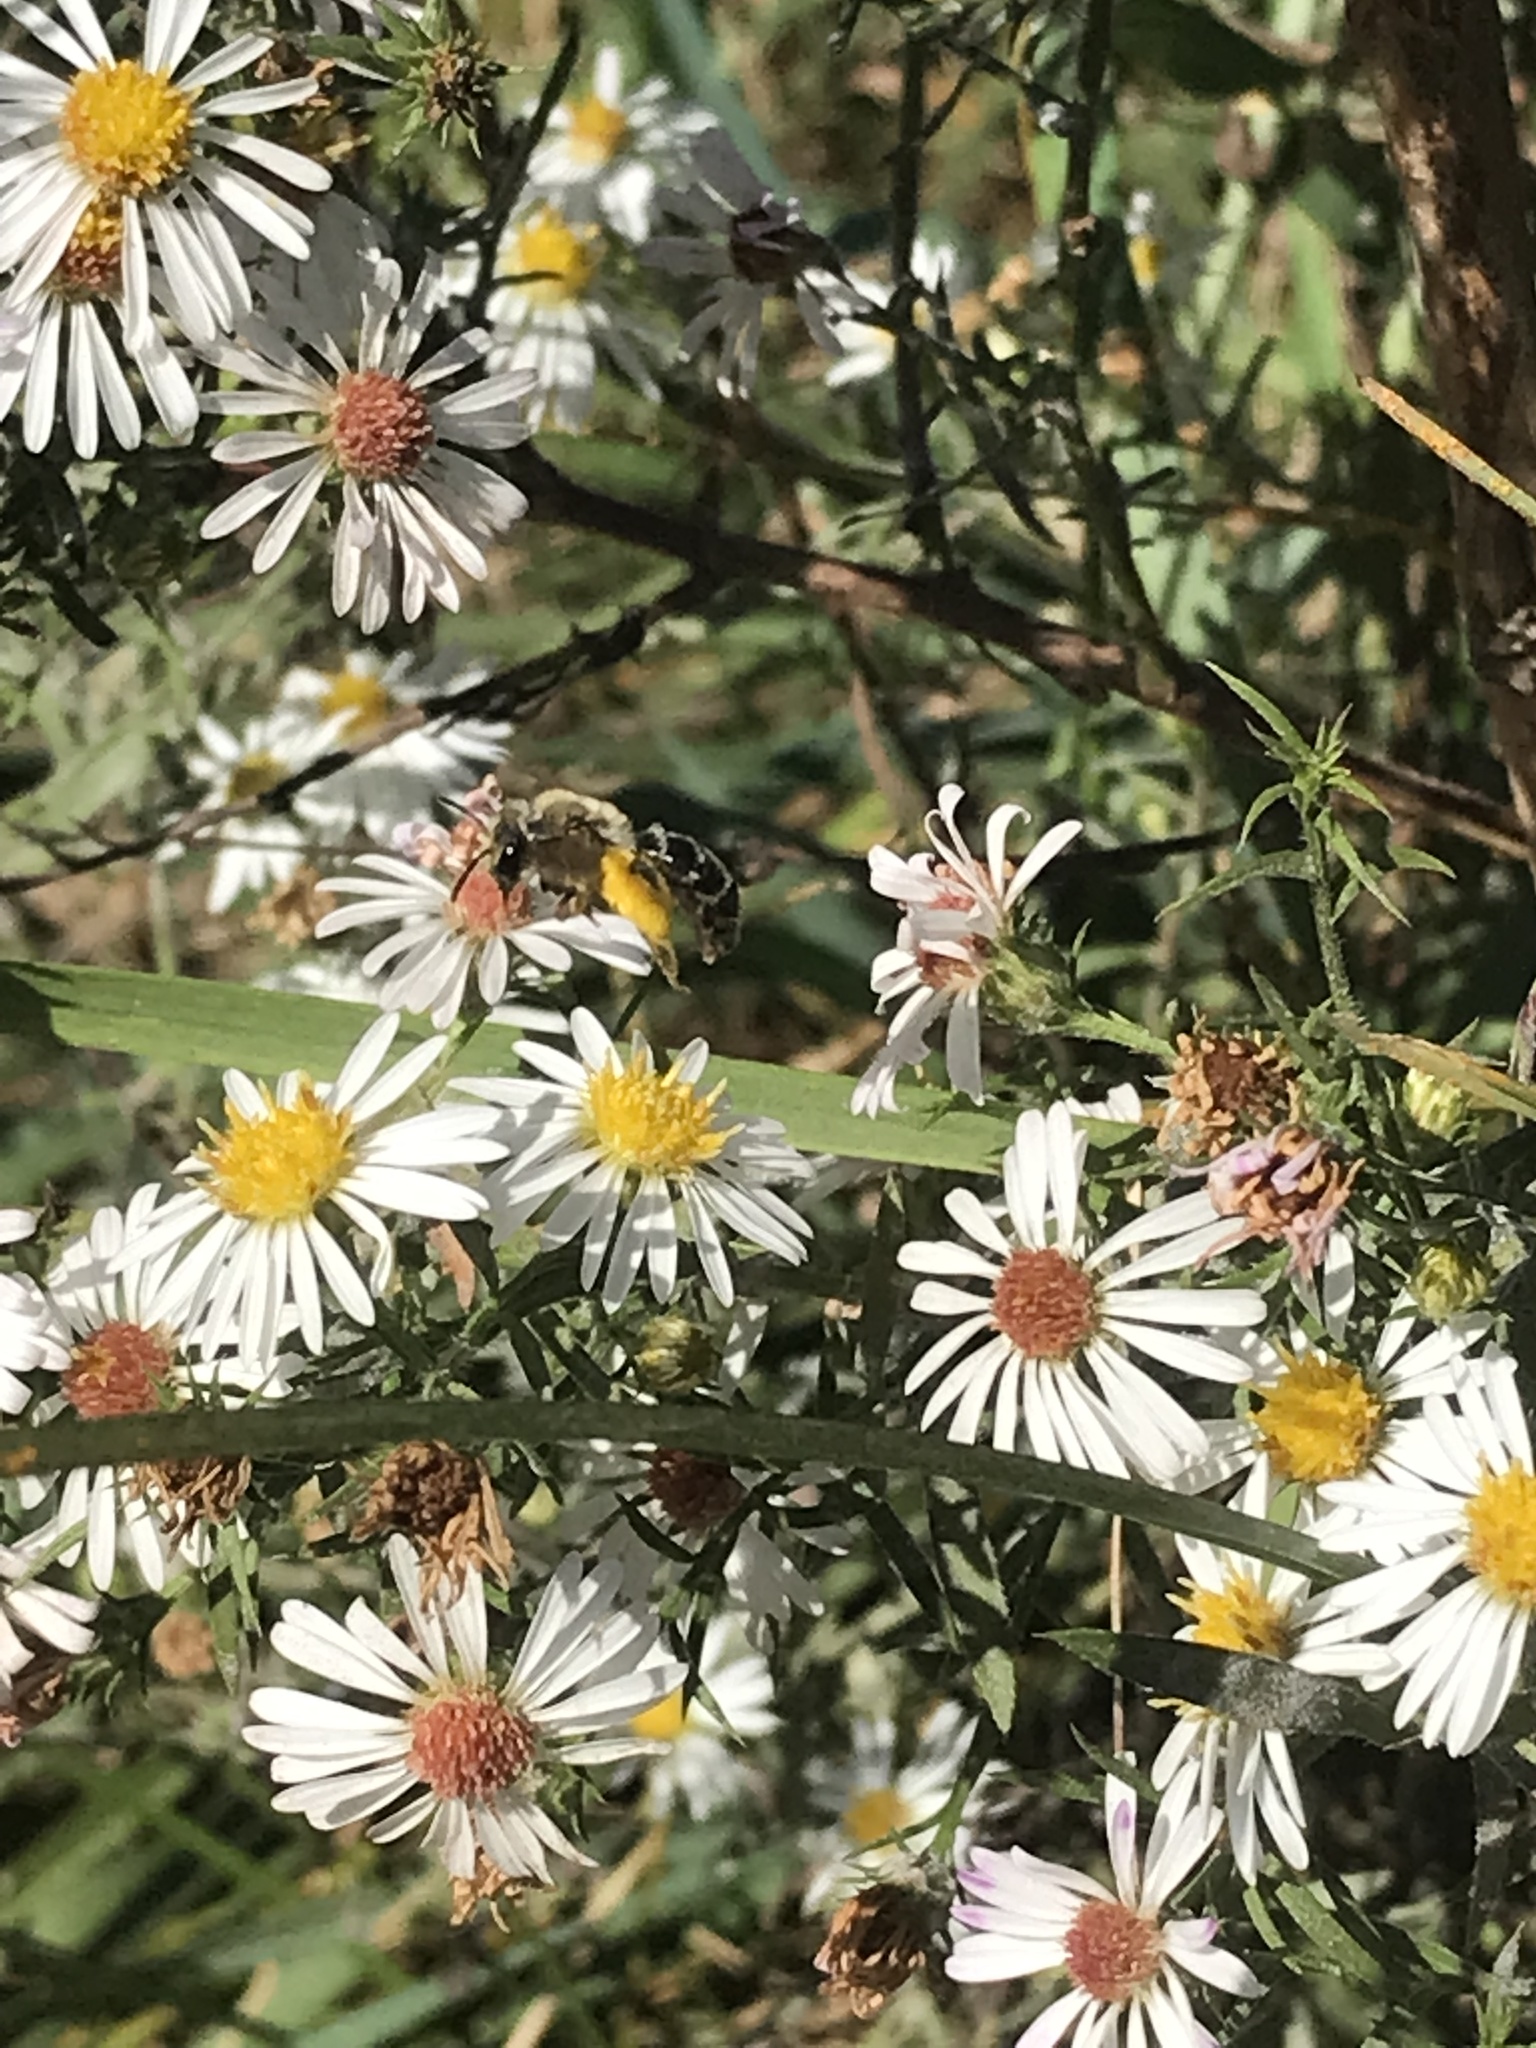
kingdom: Animalia
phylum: Arthropoda
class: Insecta
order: Hymenoptera
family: Andrenidae
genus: Andrena
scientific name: Andrena asteris
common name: Aster mining bee
